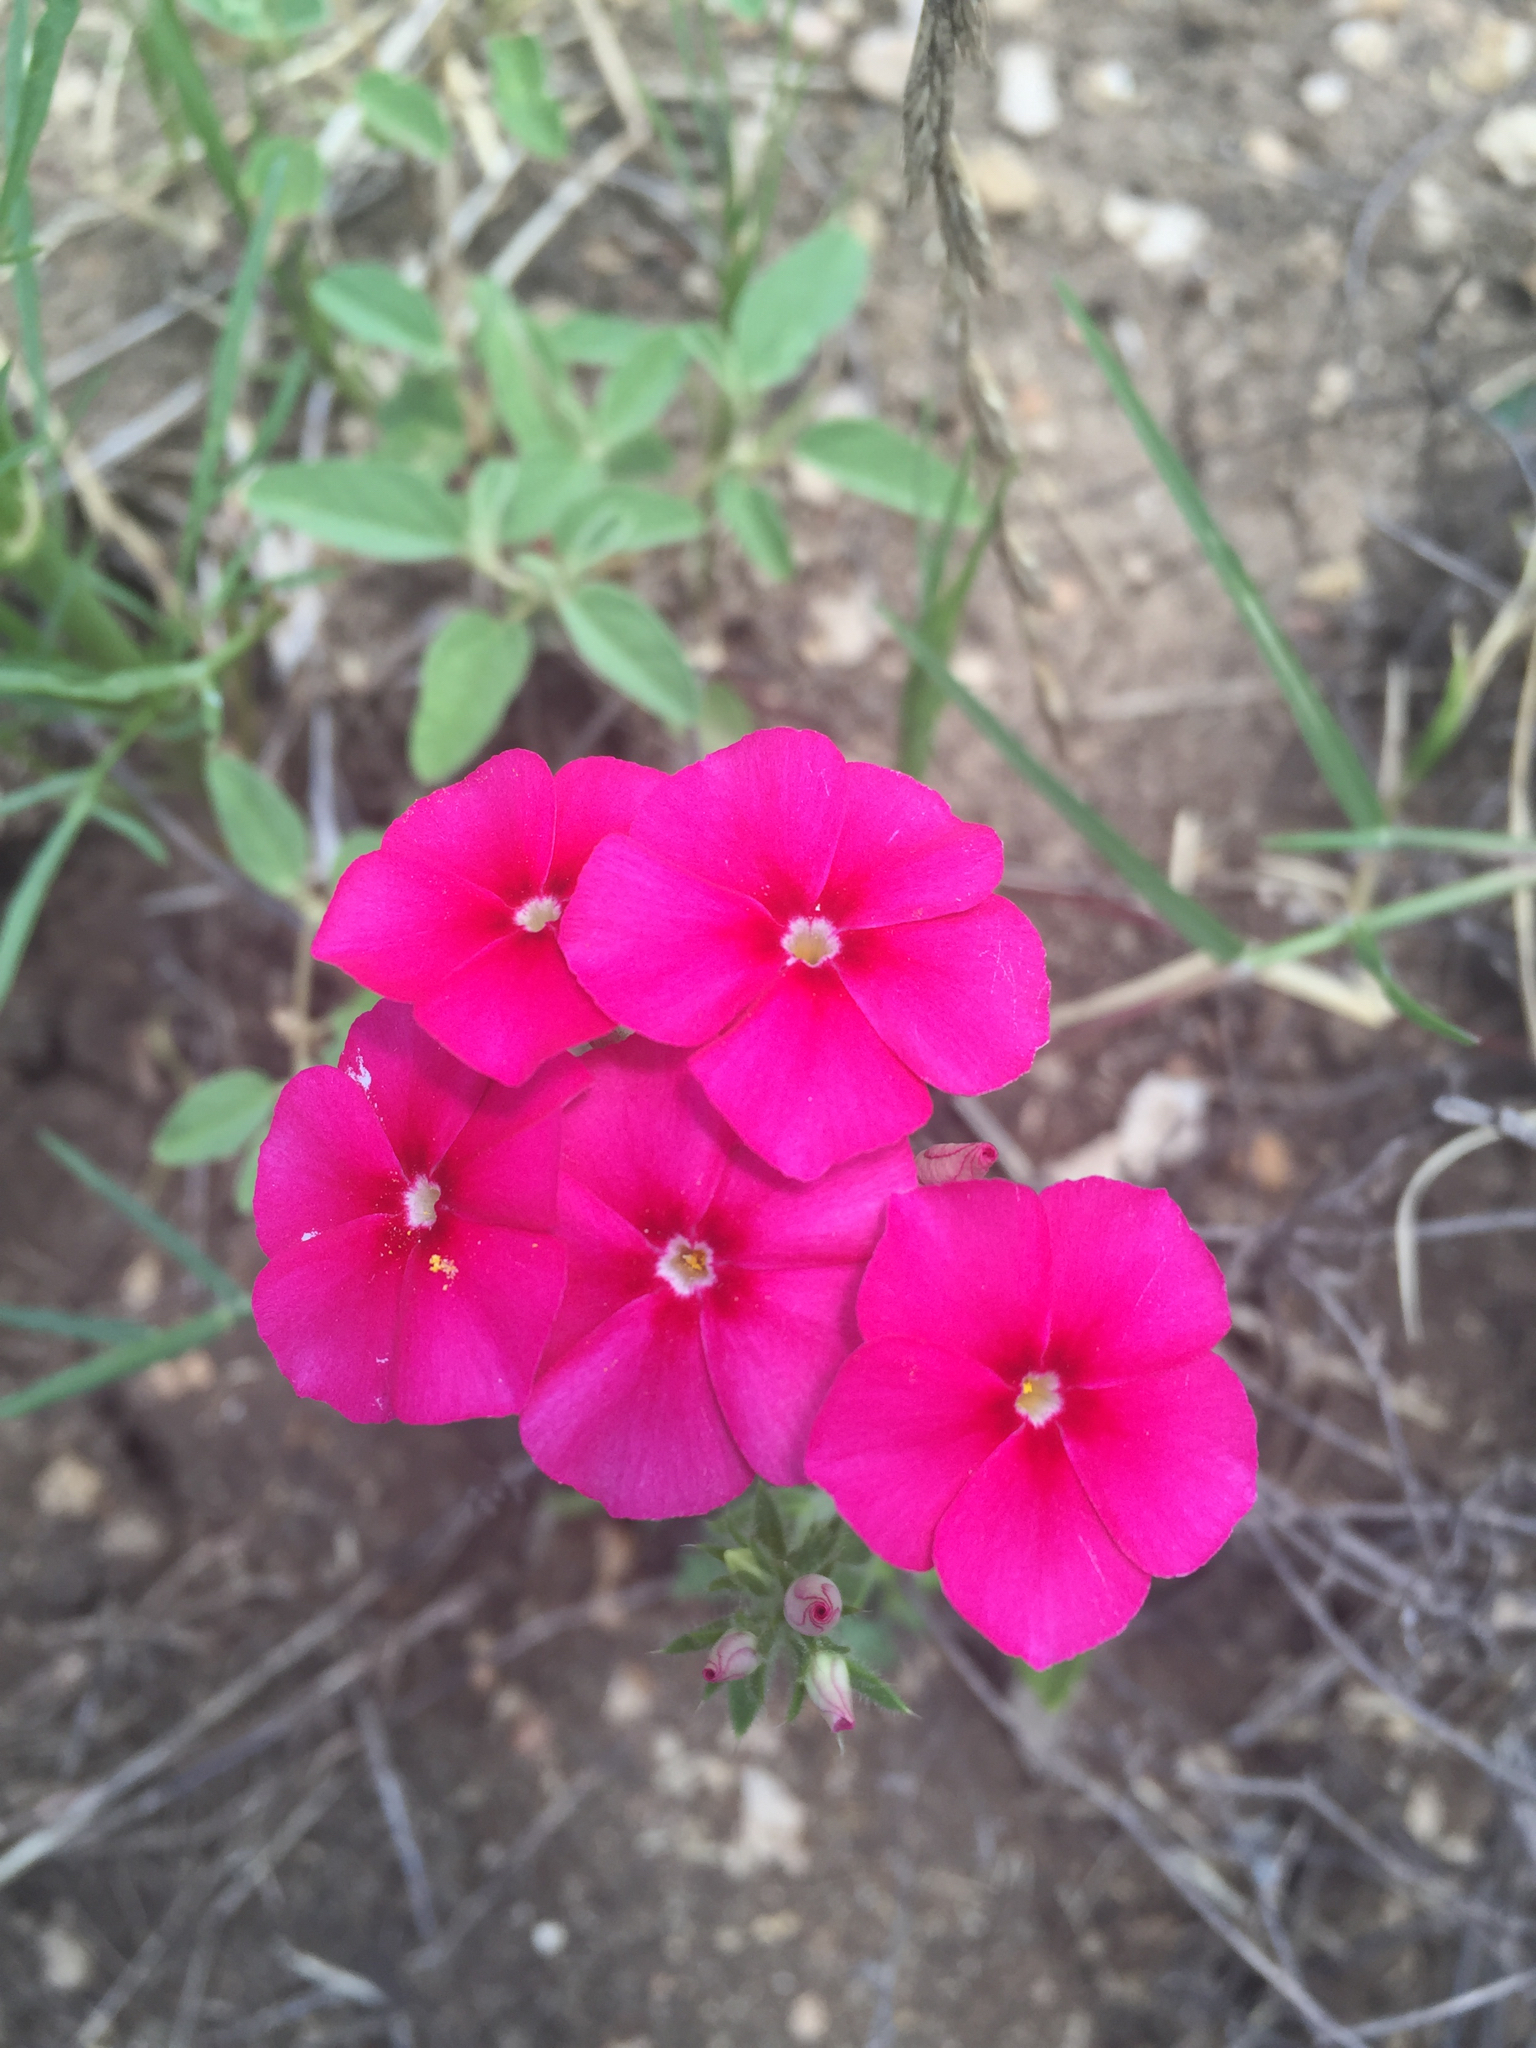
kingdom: Plantae
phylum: Tracheophyta
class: Magnoliopsida
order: Ericales
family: Polemoniaceae
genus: Phlox
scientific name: Phlox drummondii
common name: Drummond's phlox
